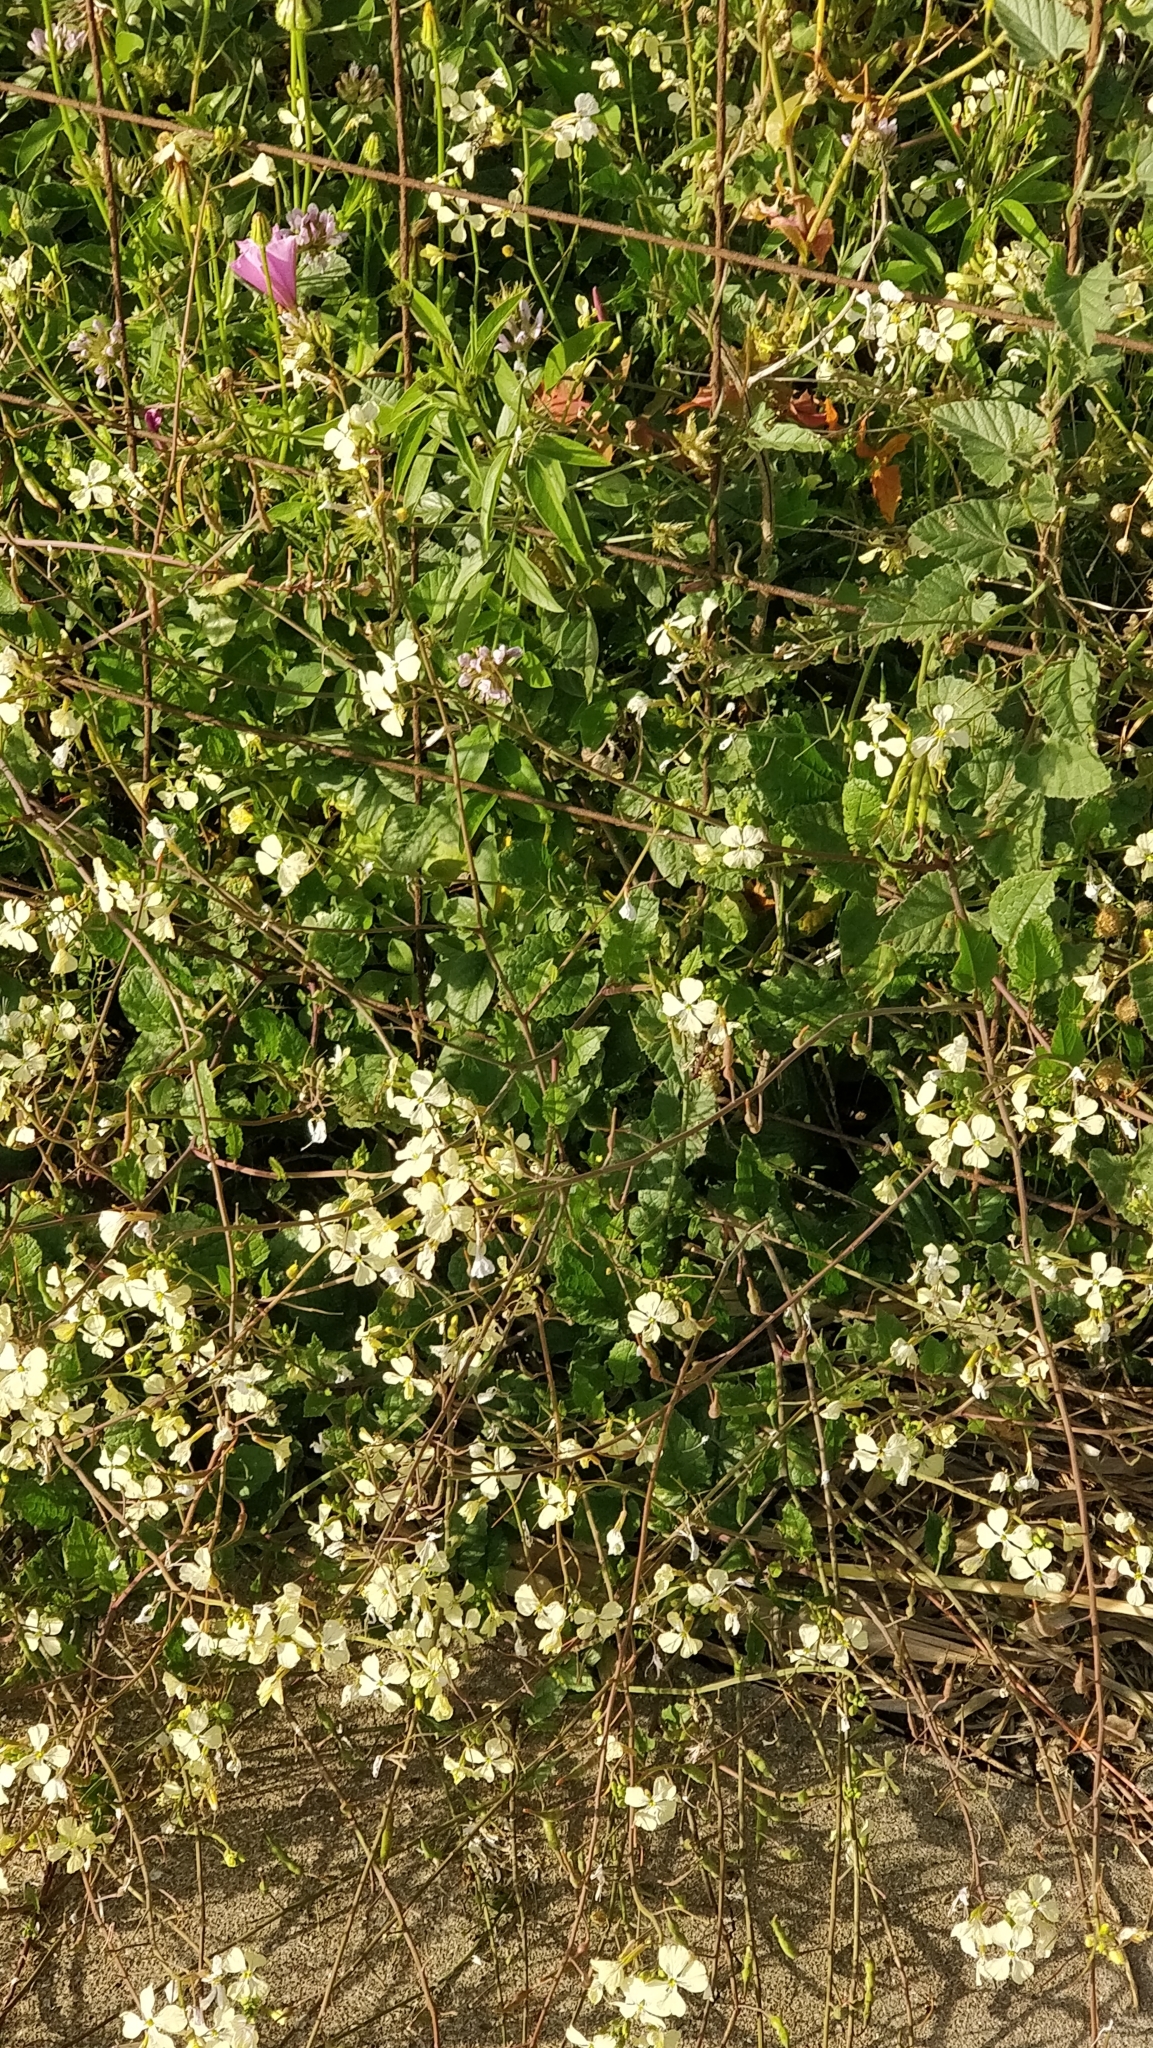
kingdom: Plantae
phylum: Tracheophyta
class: Magnoliopsida
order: Brassicales
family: Brassicaceae
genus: Raphanus
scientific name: Raphanus raphanistrum
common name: Wild radish
